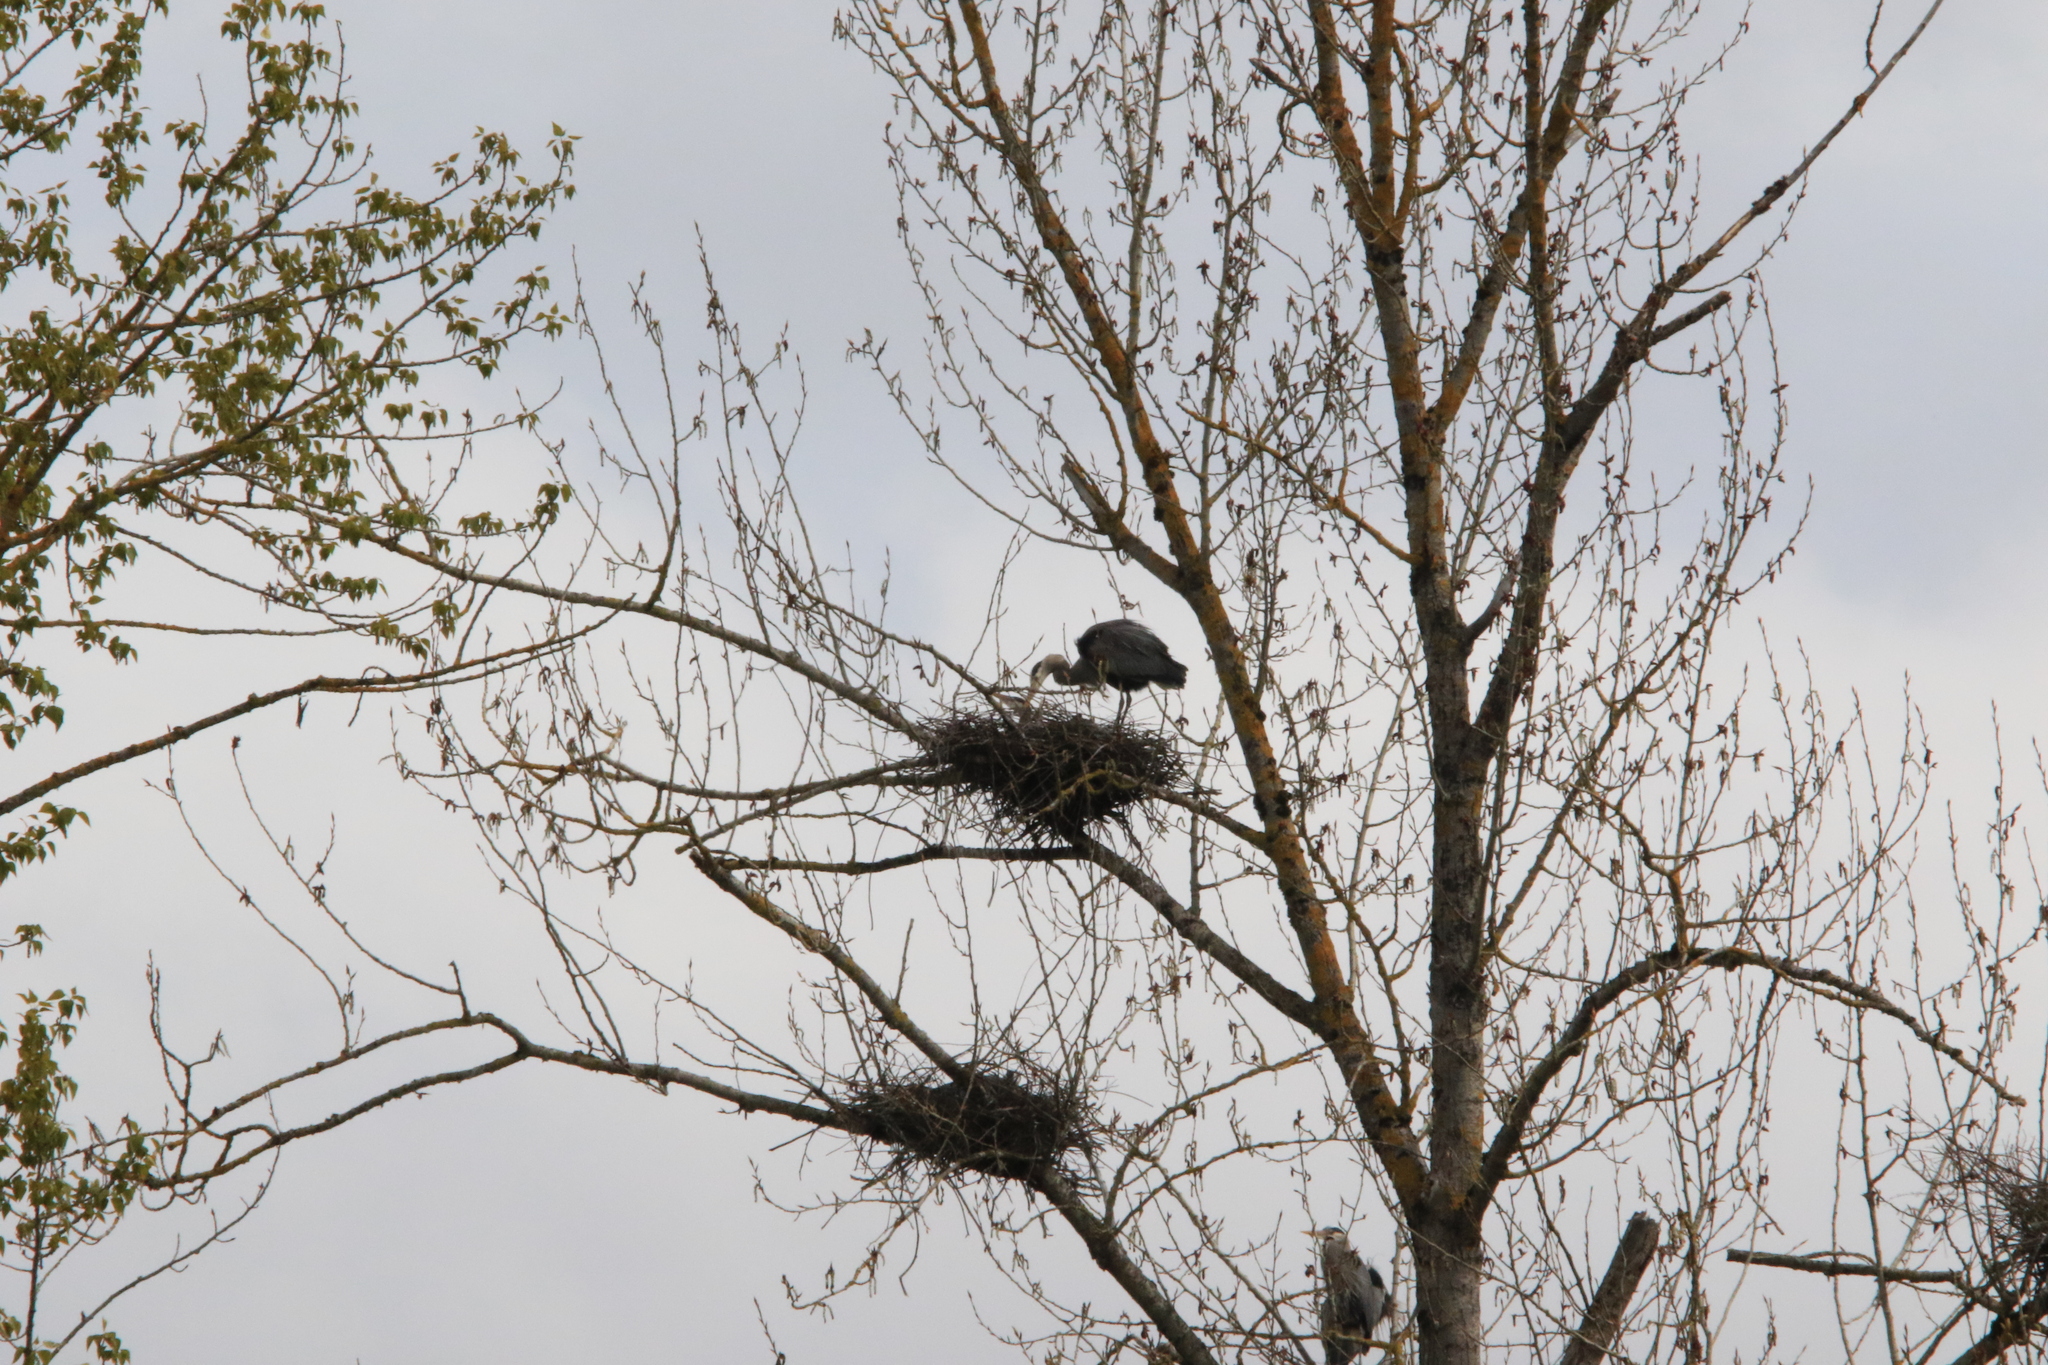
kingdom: Animalia
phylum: Chordata
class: Aves
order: Pelecaniformes
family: Ardeidae
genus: Ardea
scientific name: Ardea herodias
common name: Great blue heron
